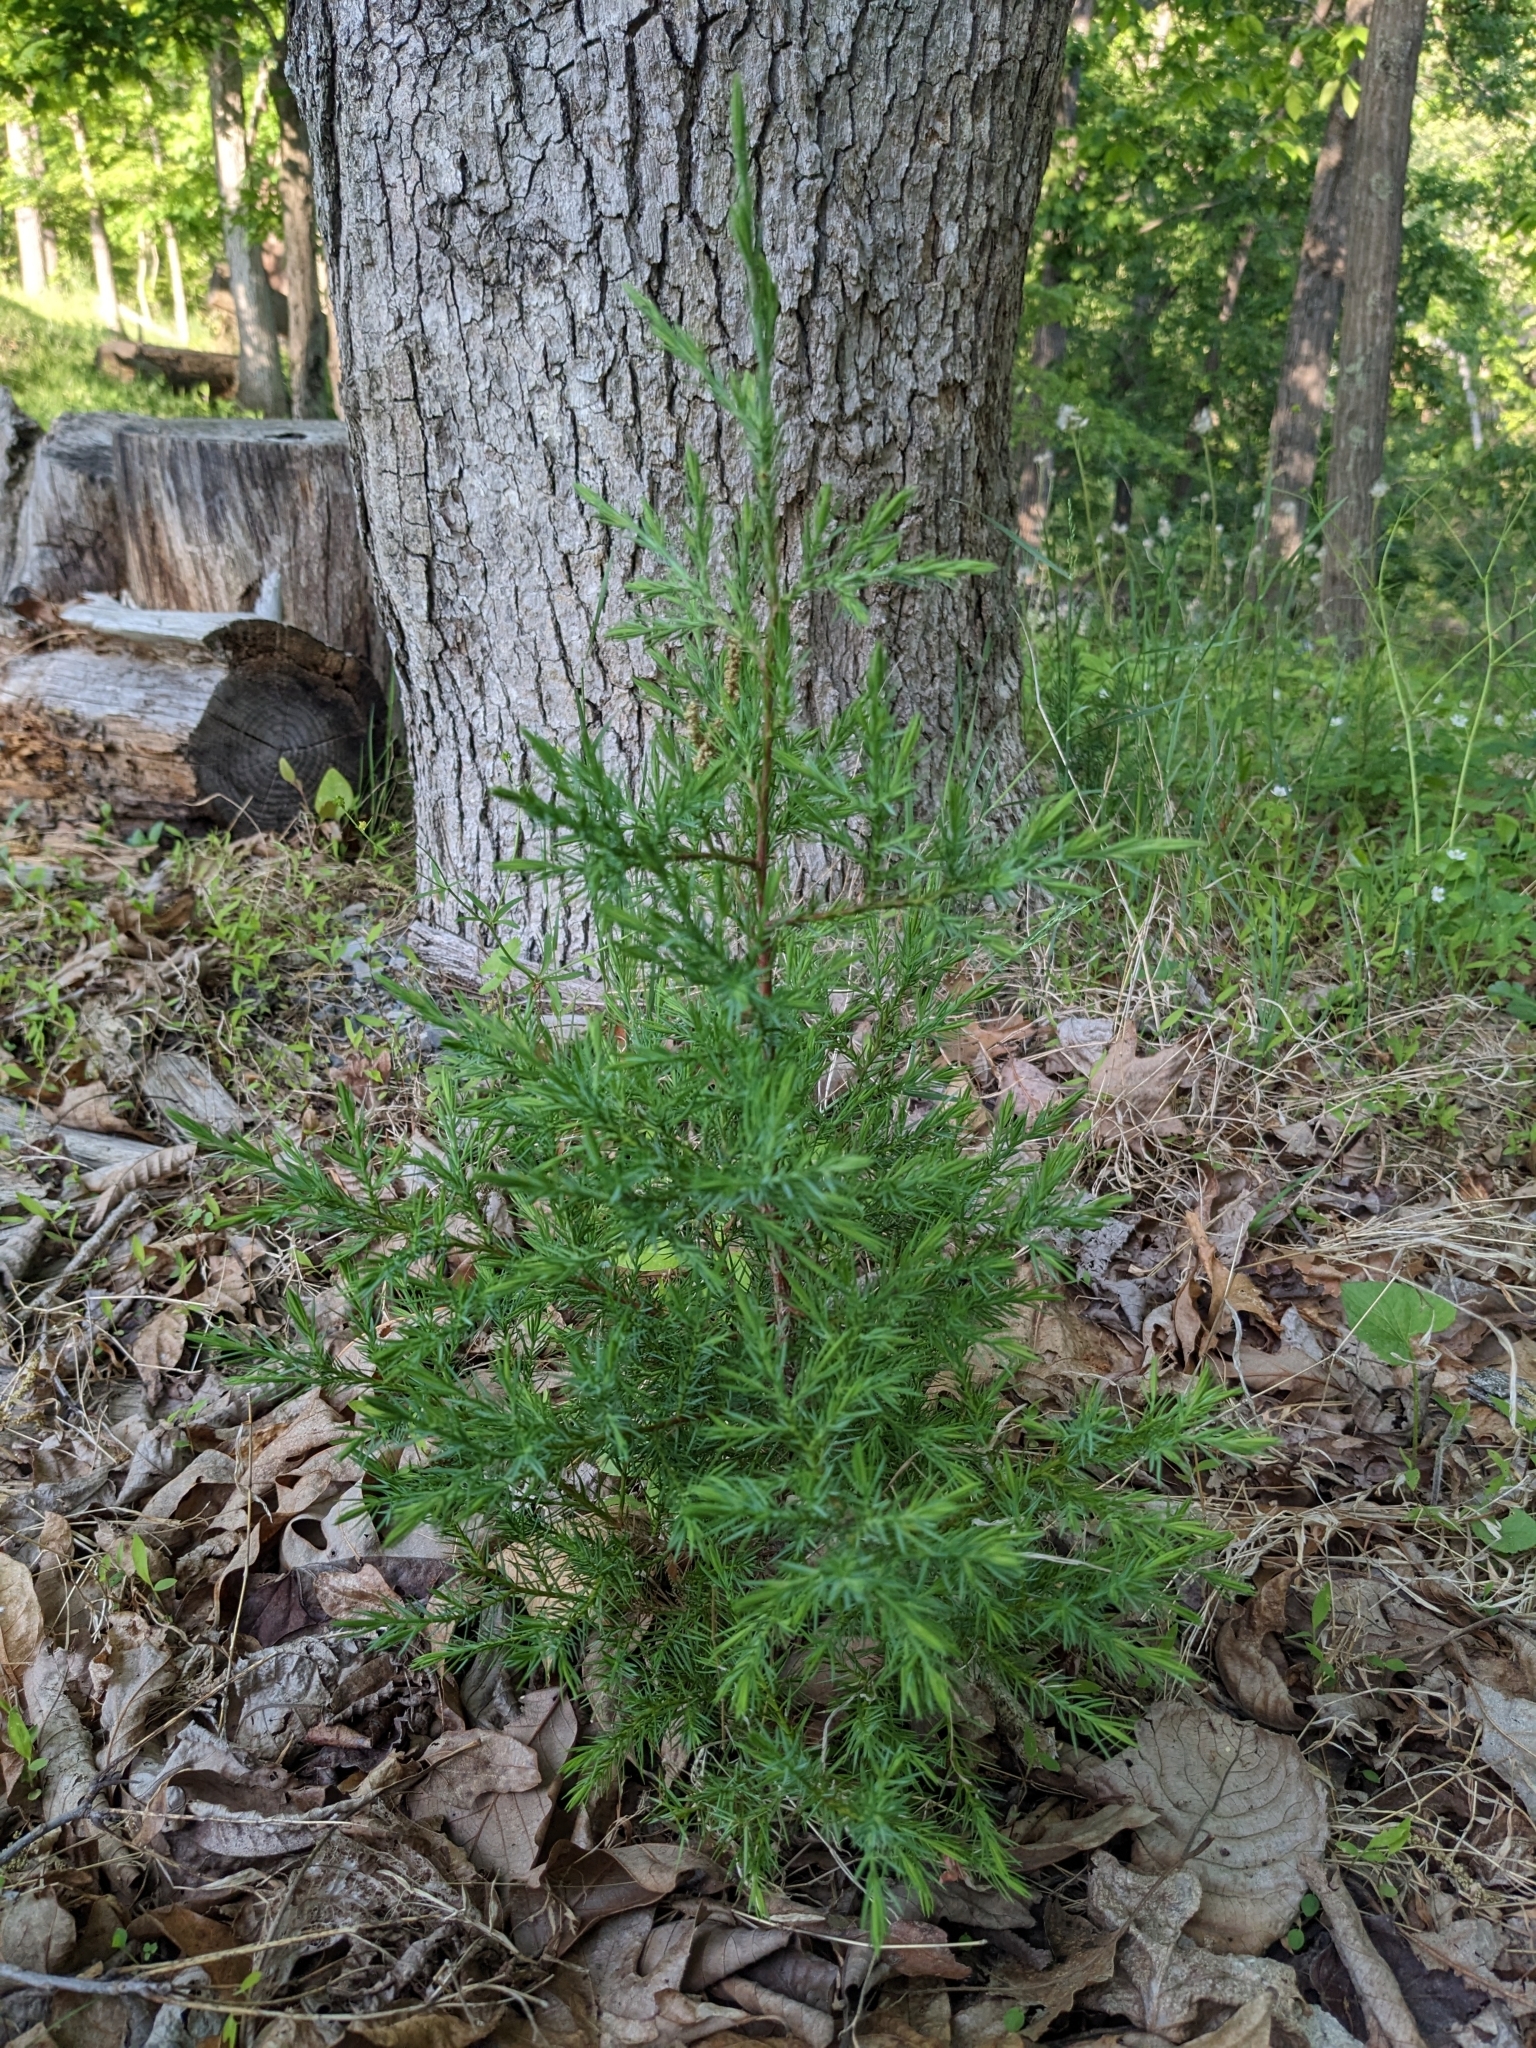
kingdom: Plantae
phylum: Tracheophyta
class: Pinopsida
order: Pinales
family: Cupressaceae
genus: Juniperus
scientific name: Juniperus virginiana
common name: Red juniper
